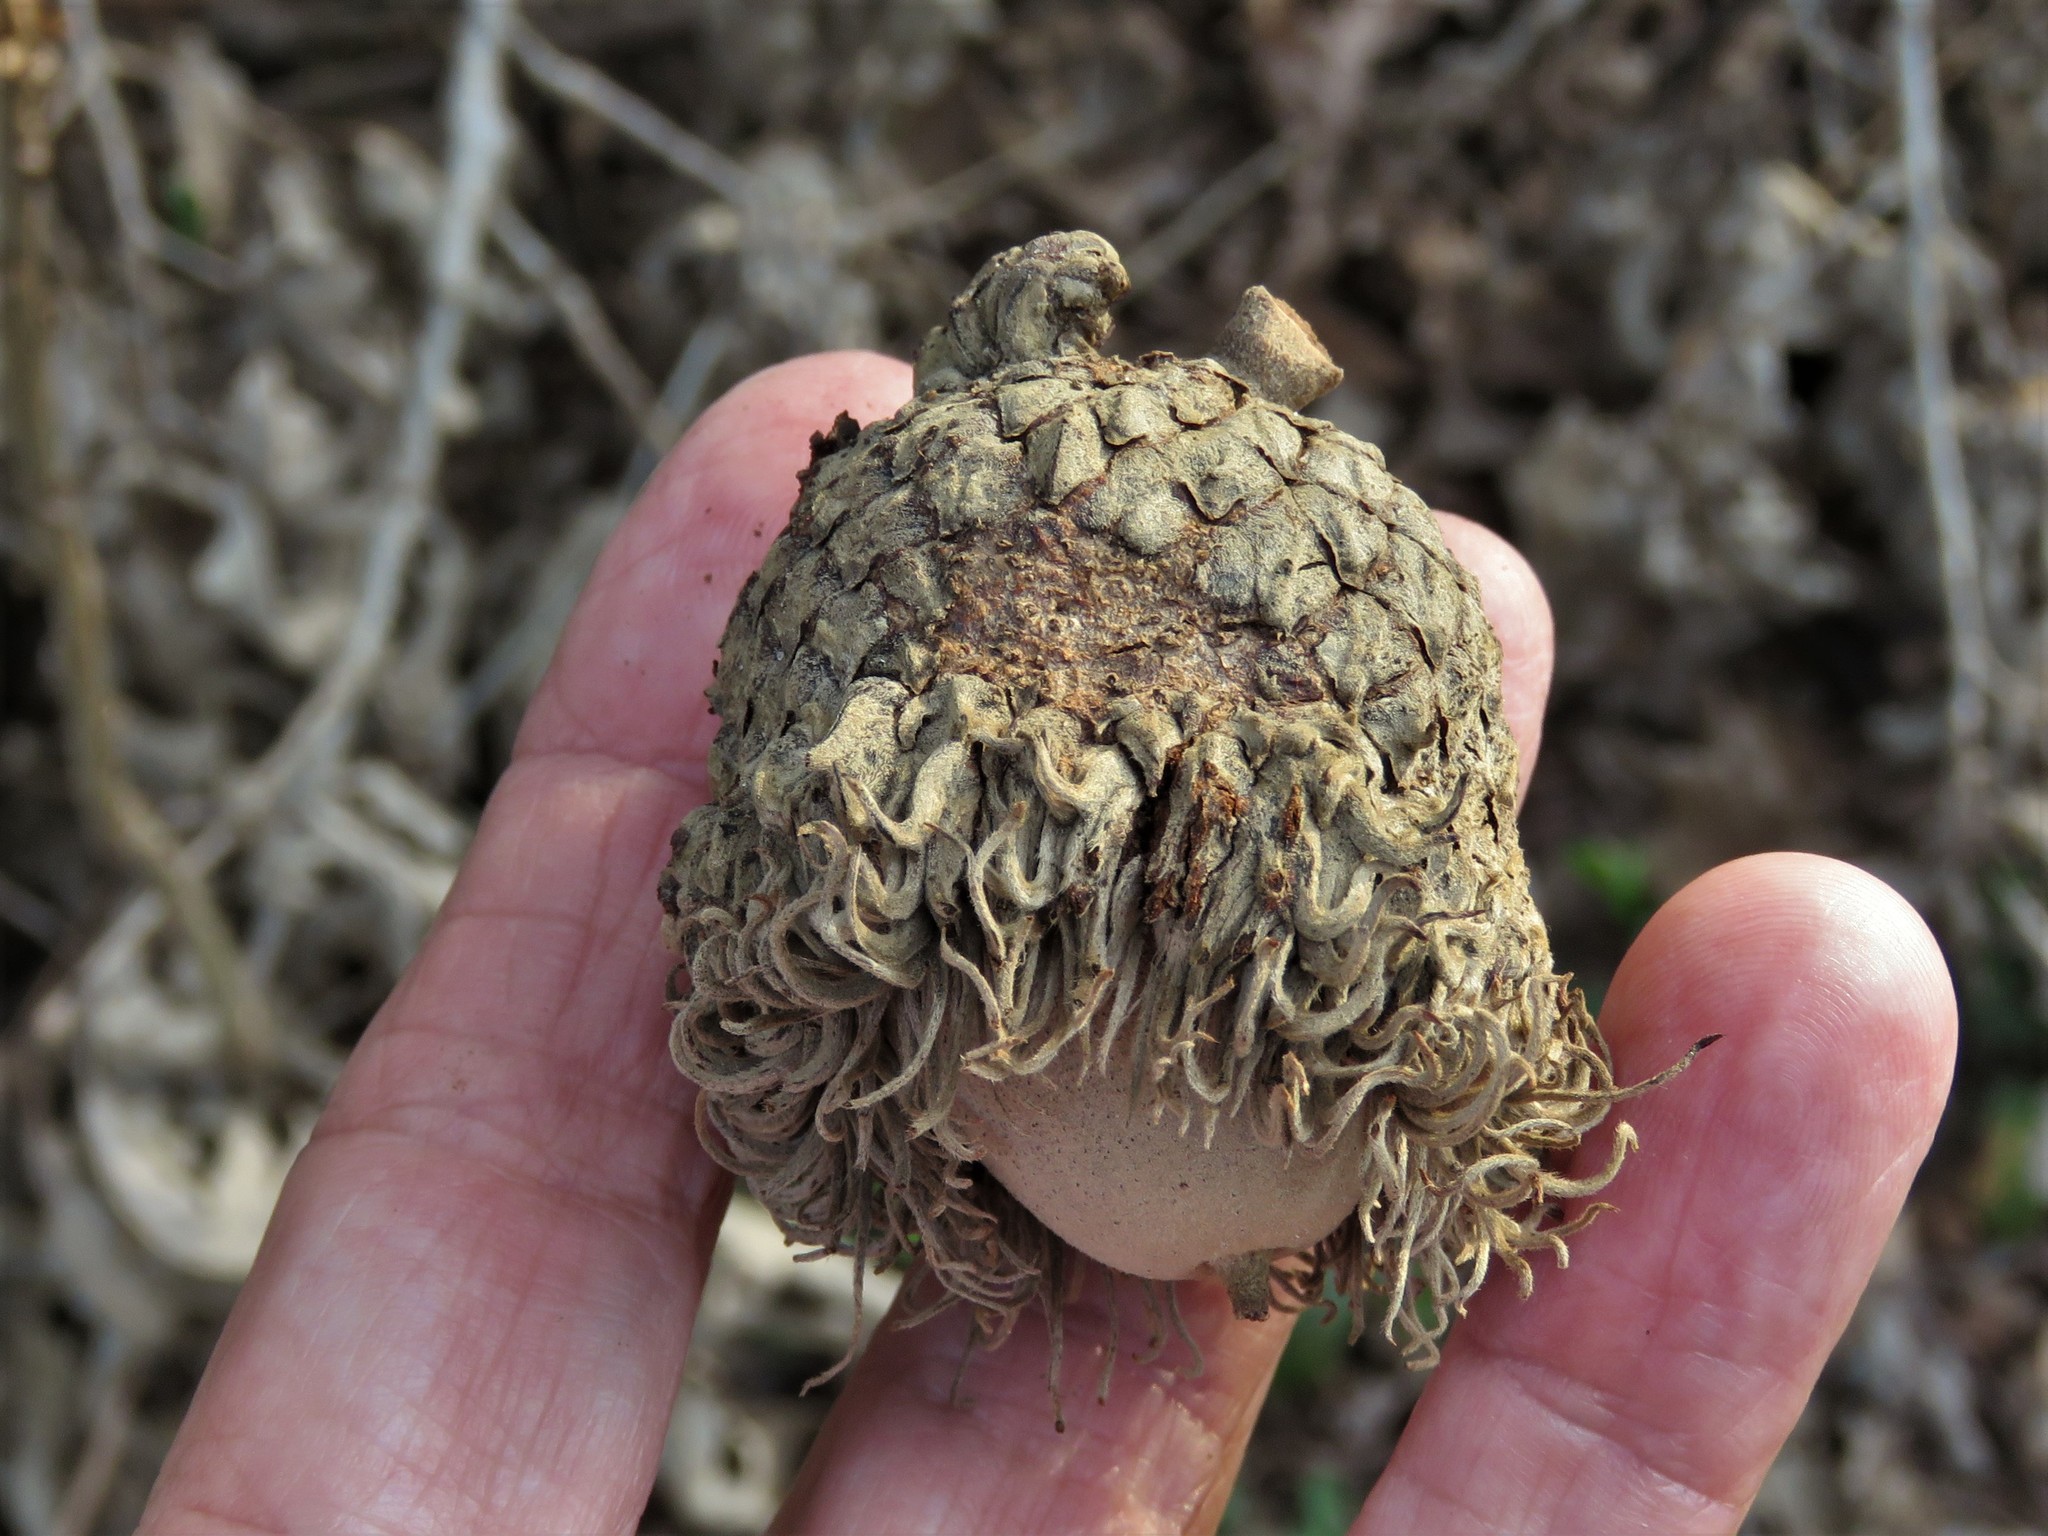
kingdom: Plantae
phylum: Tracheophyta
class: Magnoliopsida
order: Fagales
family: Fagaceae
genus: Quercus
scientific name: Quercus macrocarpa
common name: Bur oak
